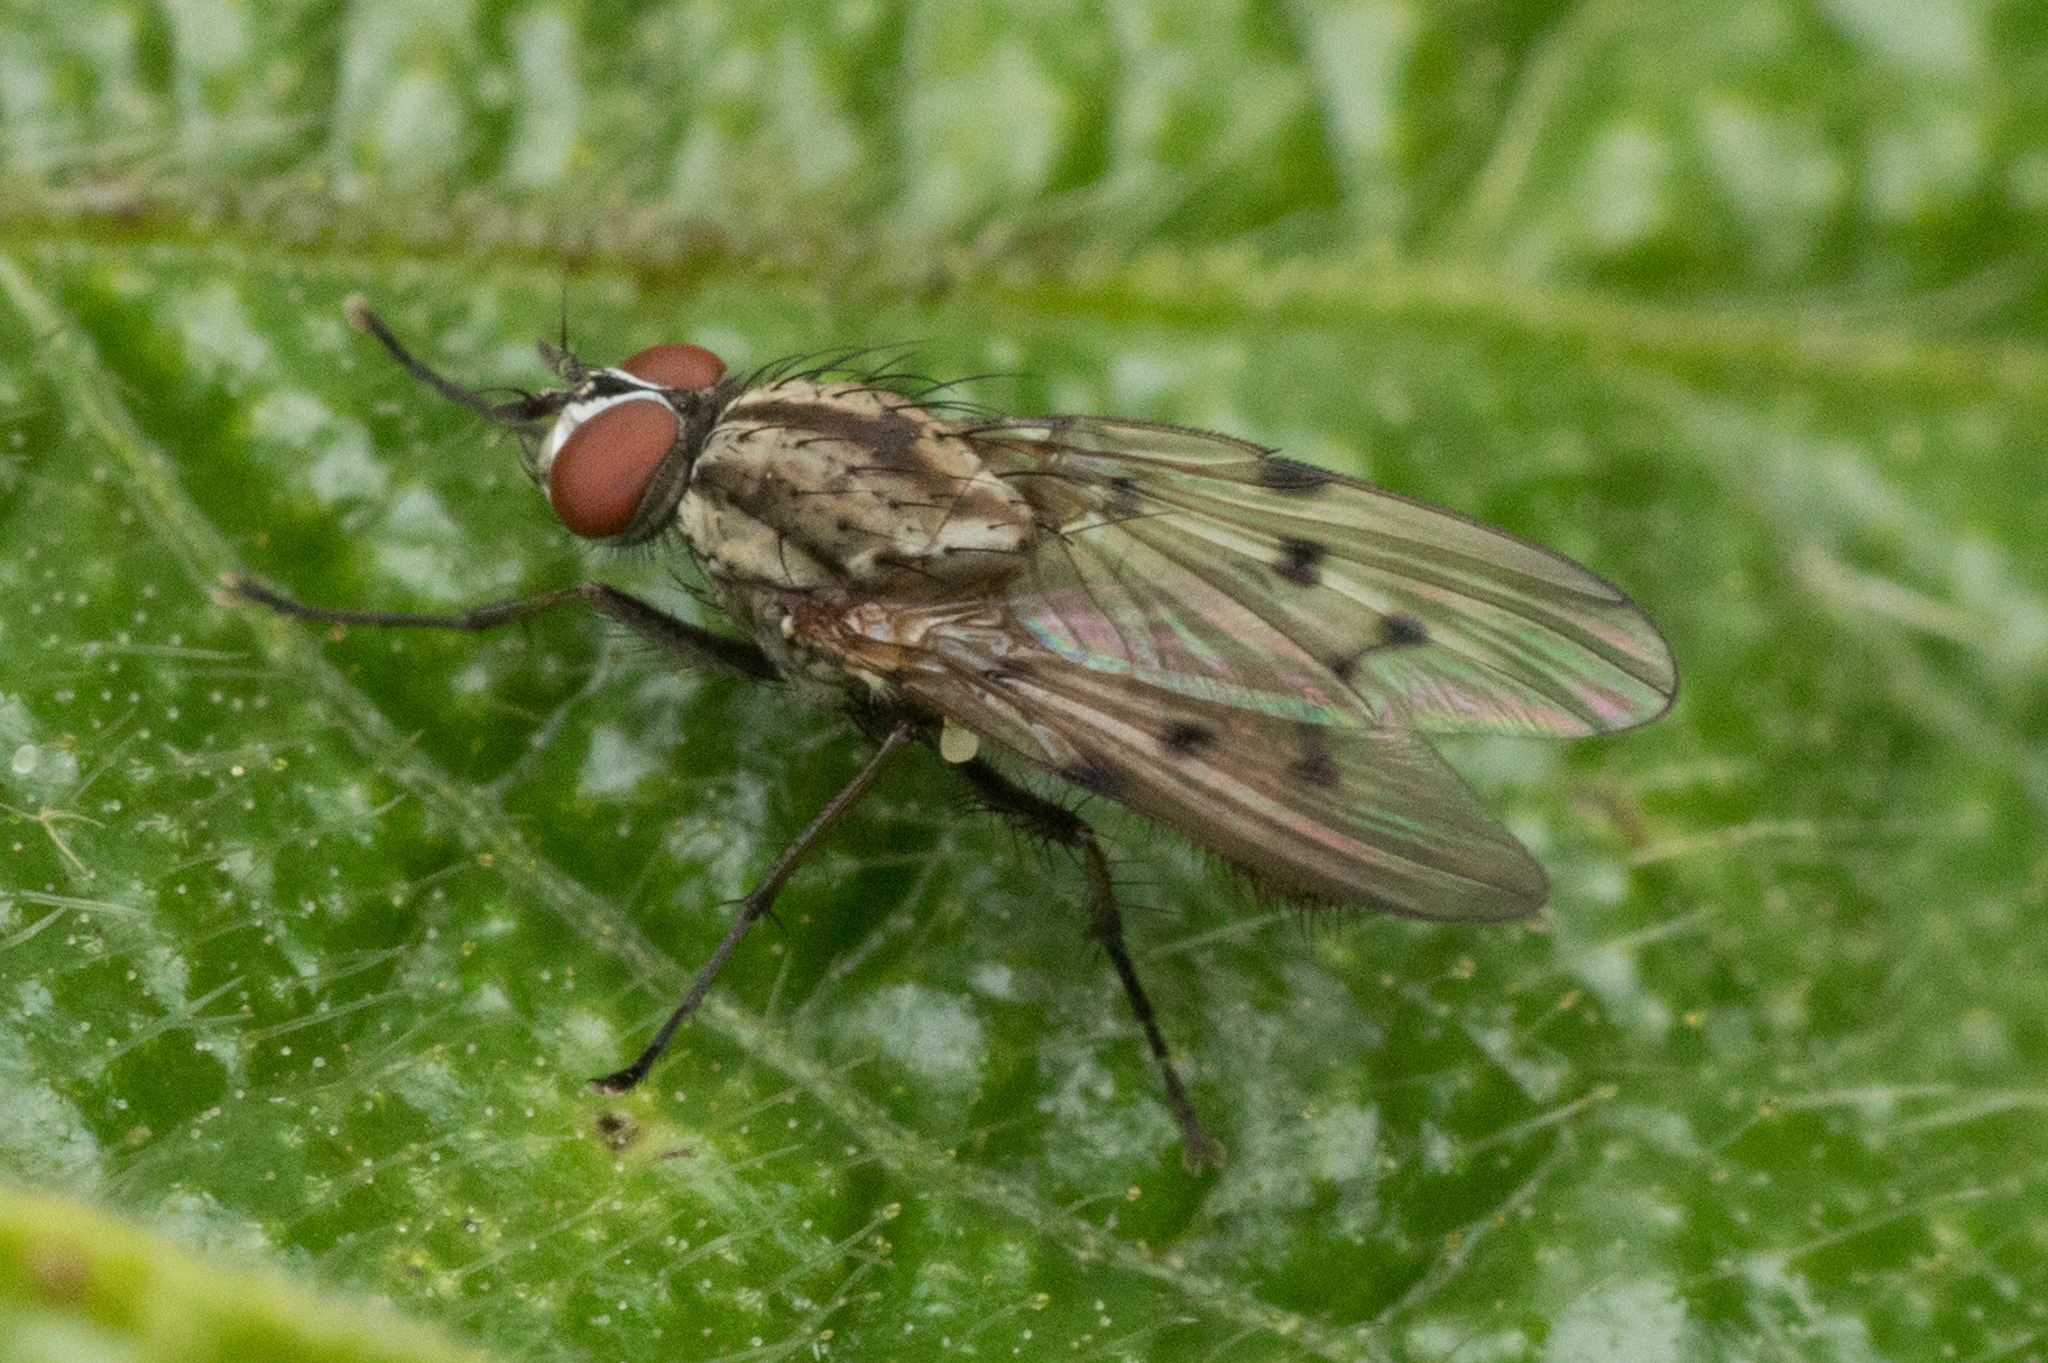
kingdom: Animalia
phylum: Arthropoda
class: Insecta
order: Diptera
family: Anthomyiidae
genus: Anthomyia
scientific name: Anthomyia punctipennis
